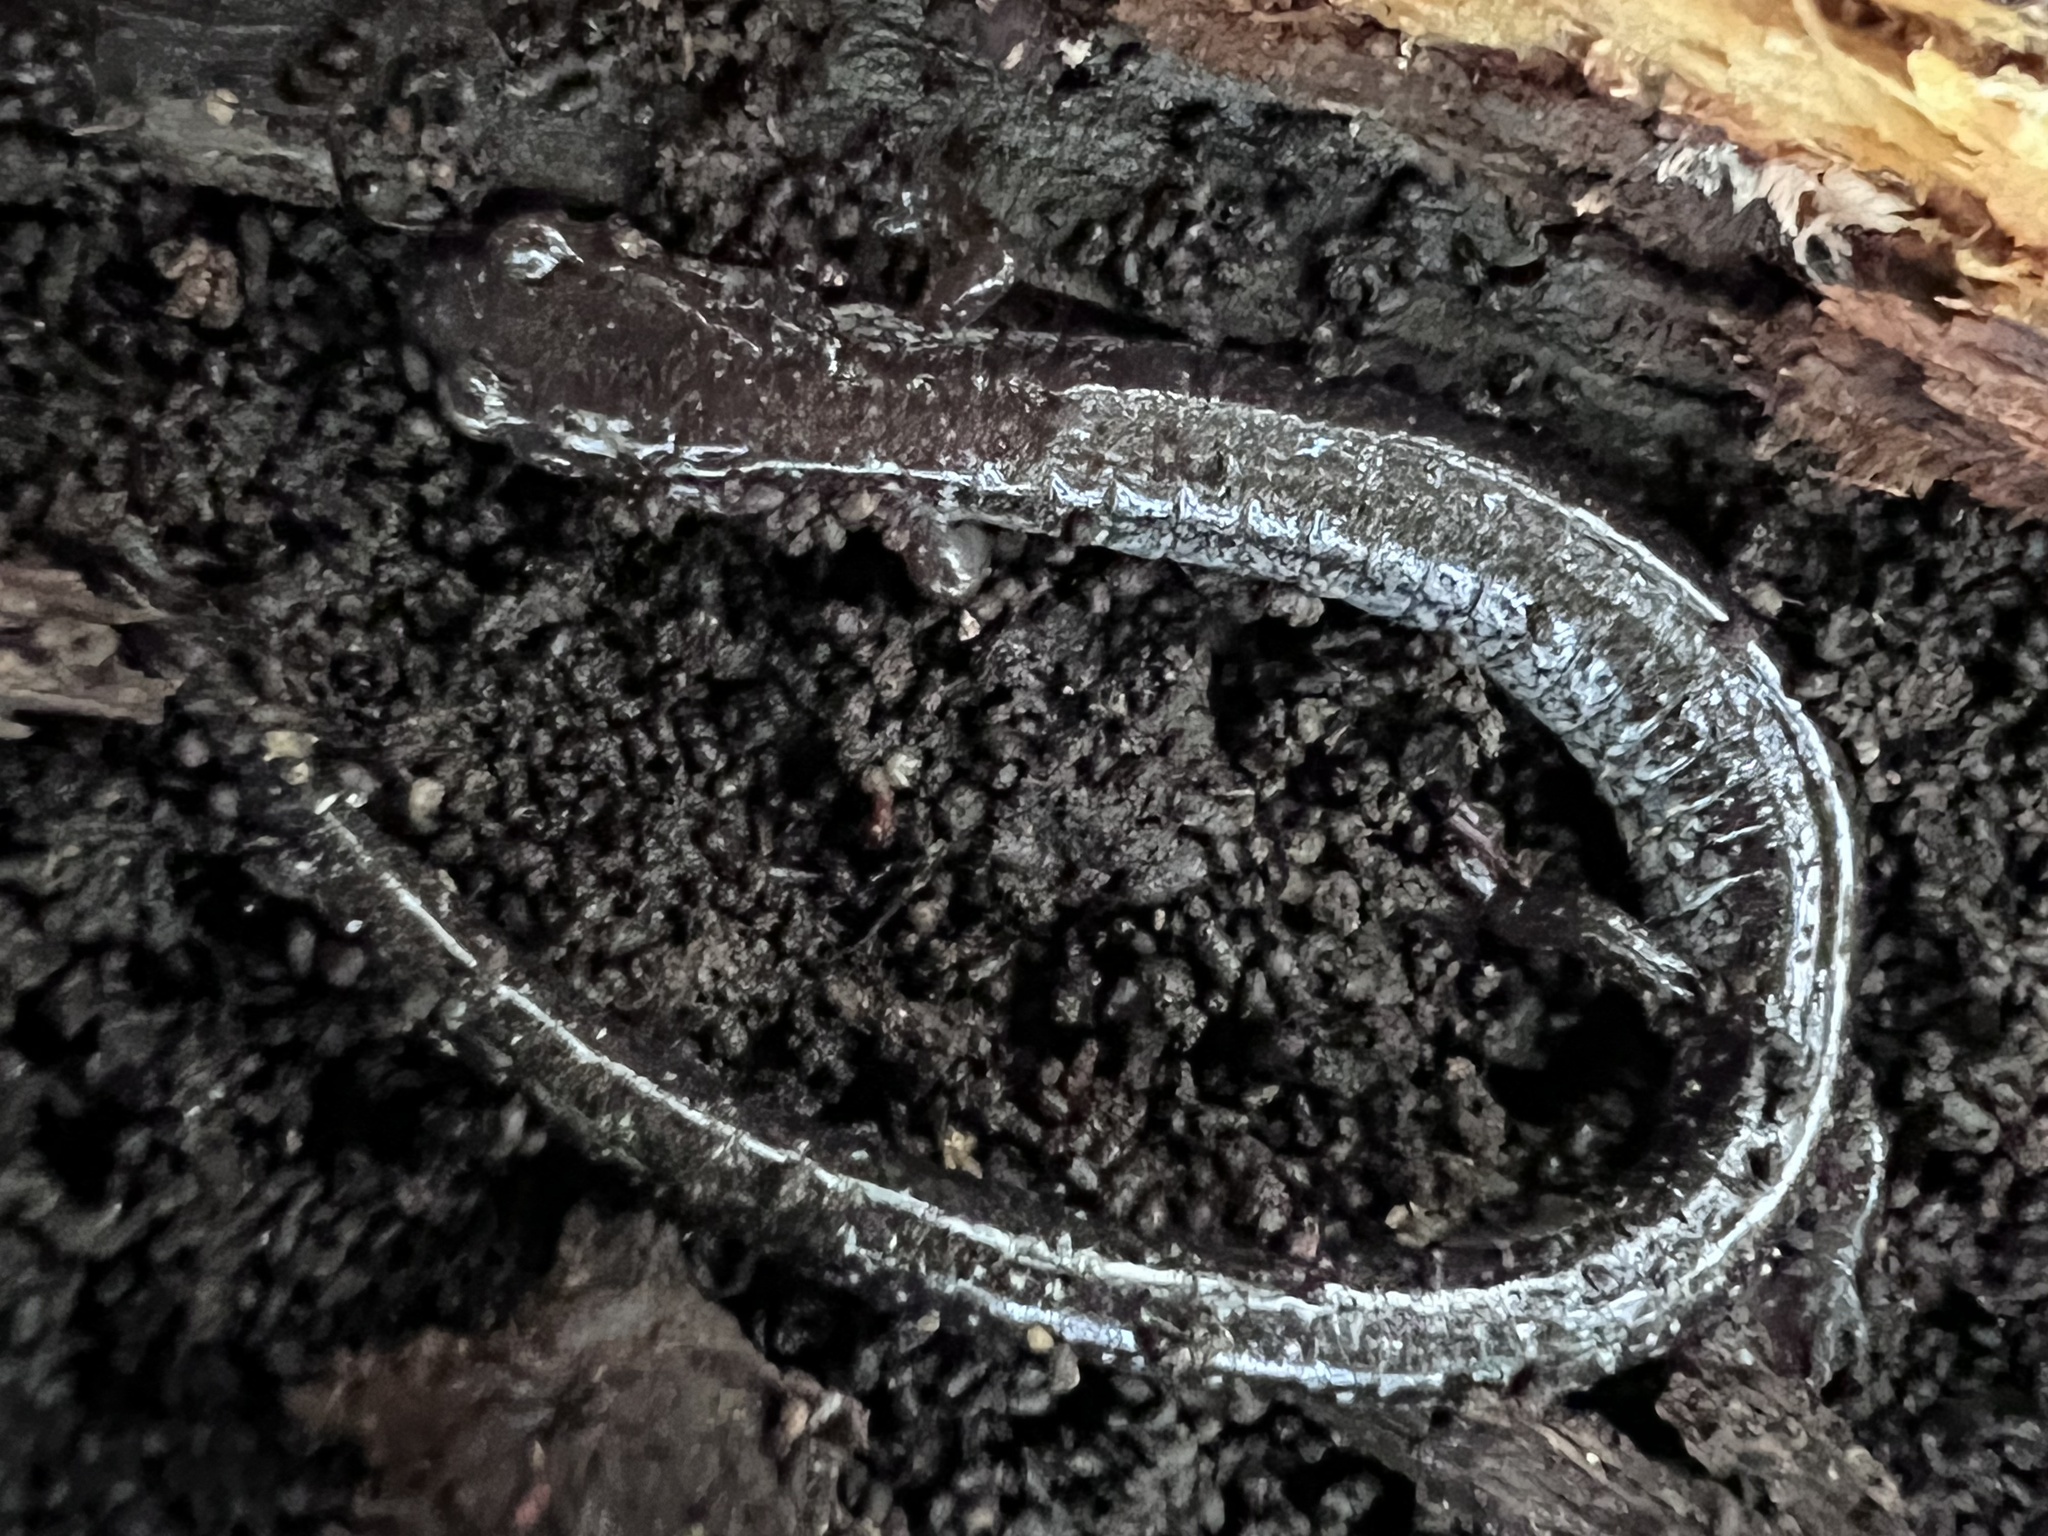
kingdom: Animalia
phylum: Chordata
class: Amphibia
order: Caudata
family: Plethodontidae
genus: Plethodon
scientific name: Plethodon cinereus
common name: Redback salamander
